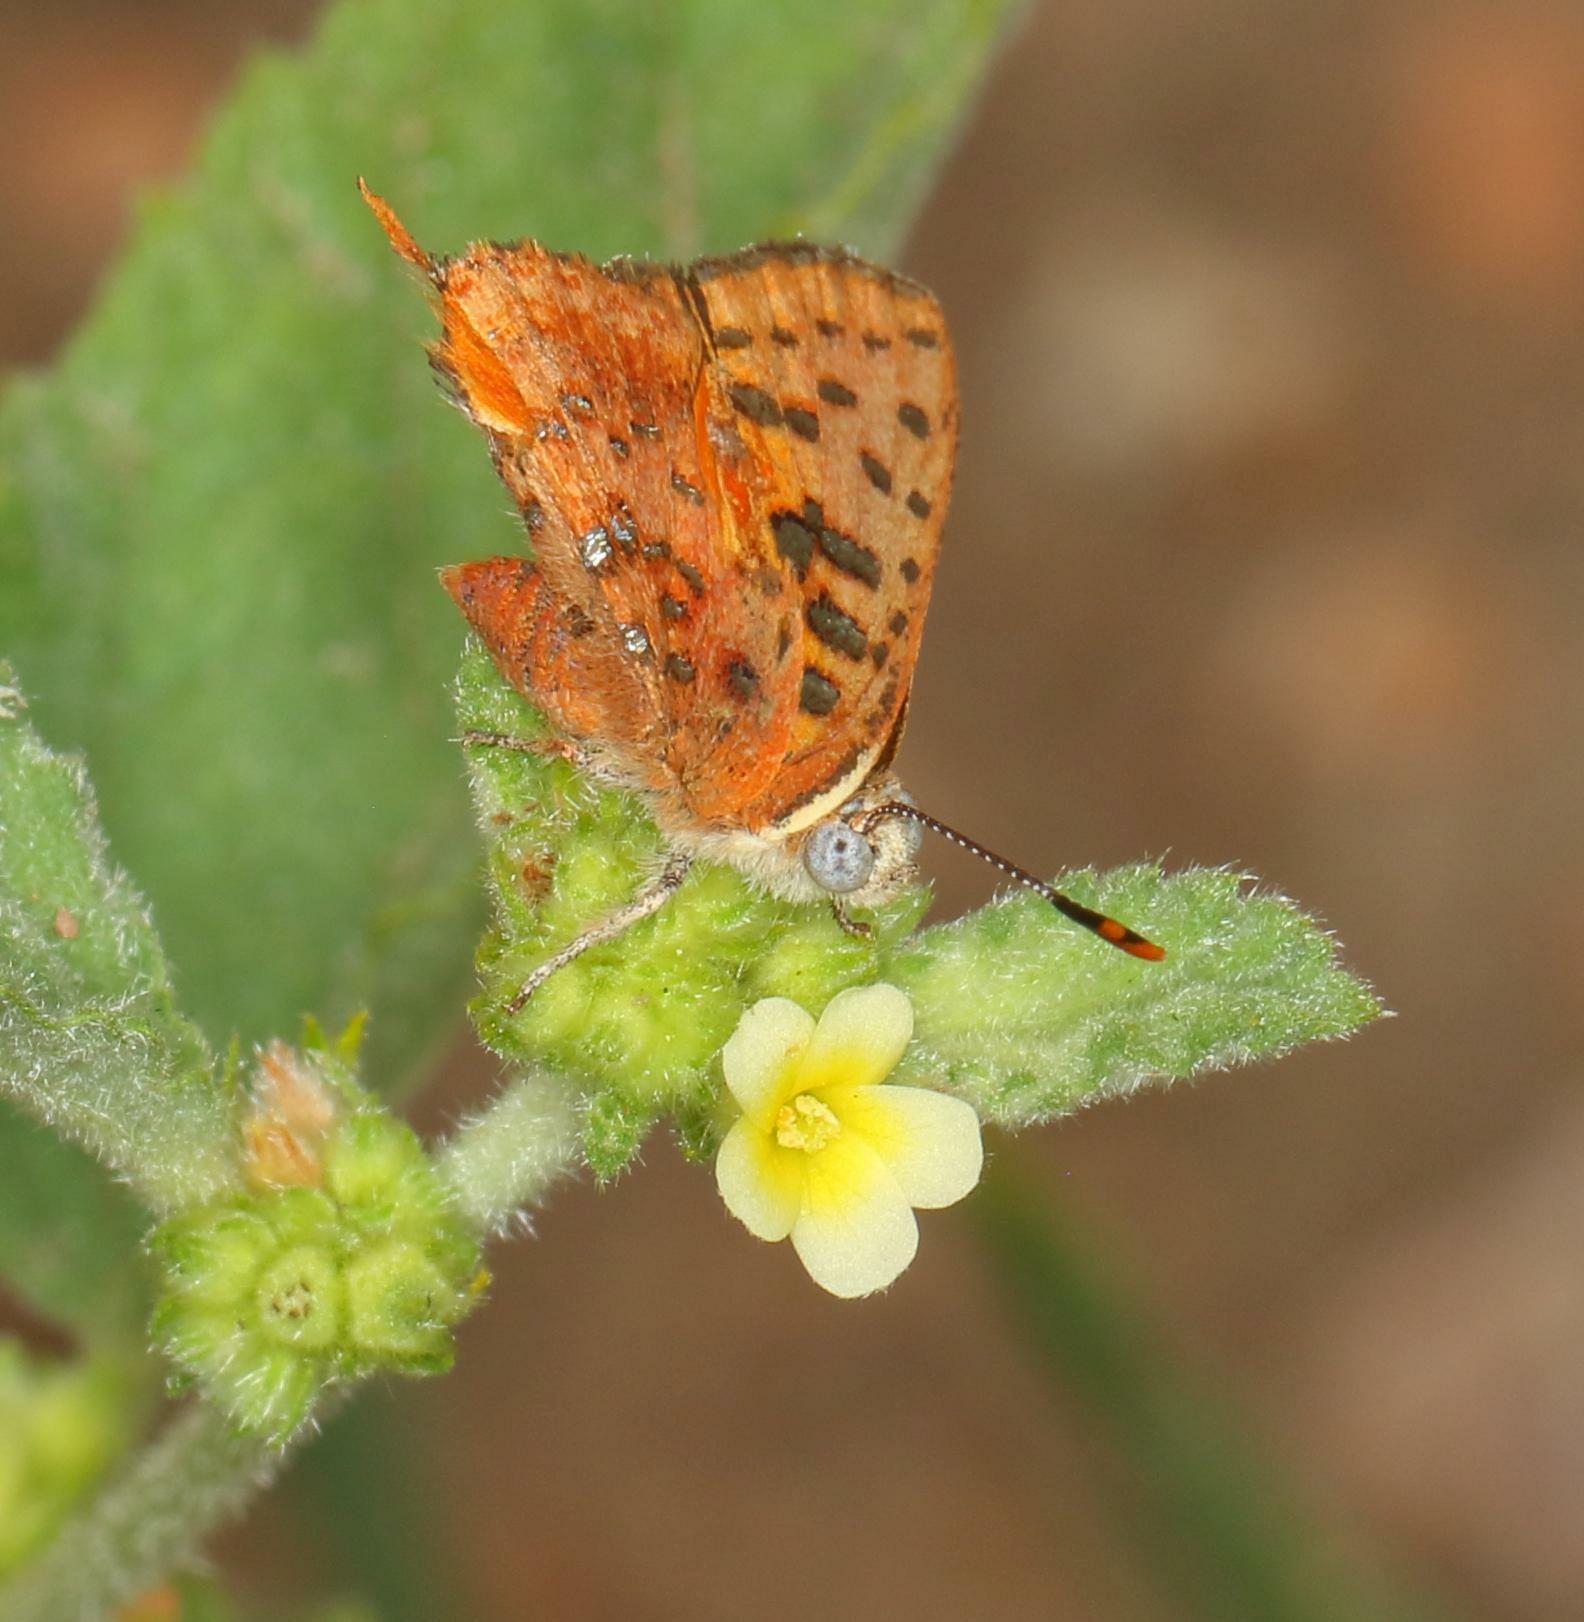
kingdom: Animalia
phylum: Arthropoda
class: Insecta
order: Lepidoptera
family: Lycaenidae
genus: Axiocerses
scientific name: Axiocerses perion
